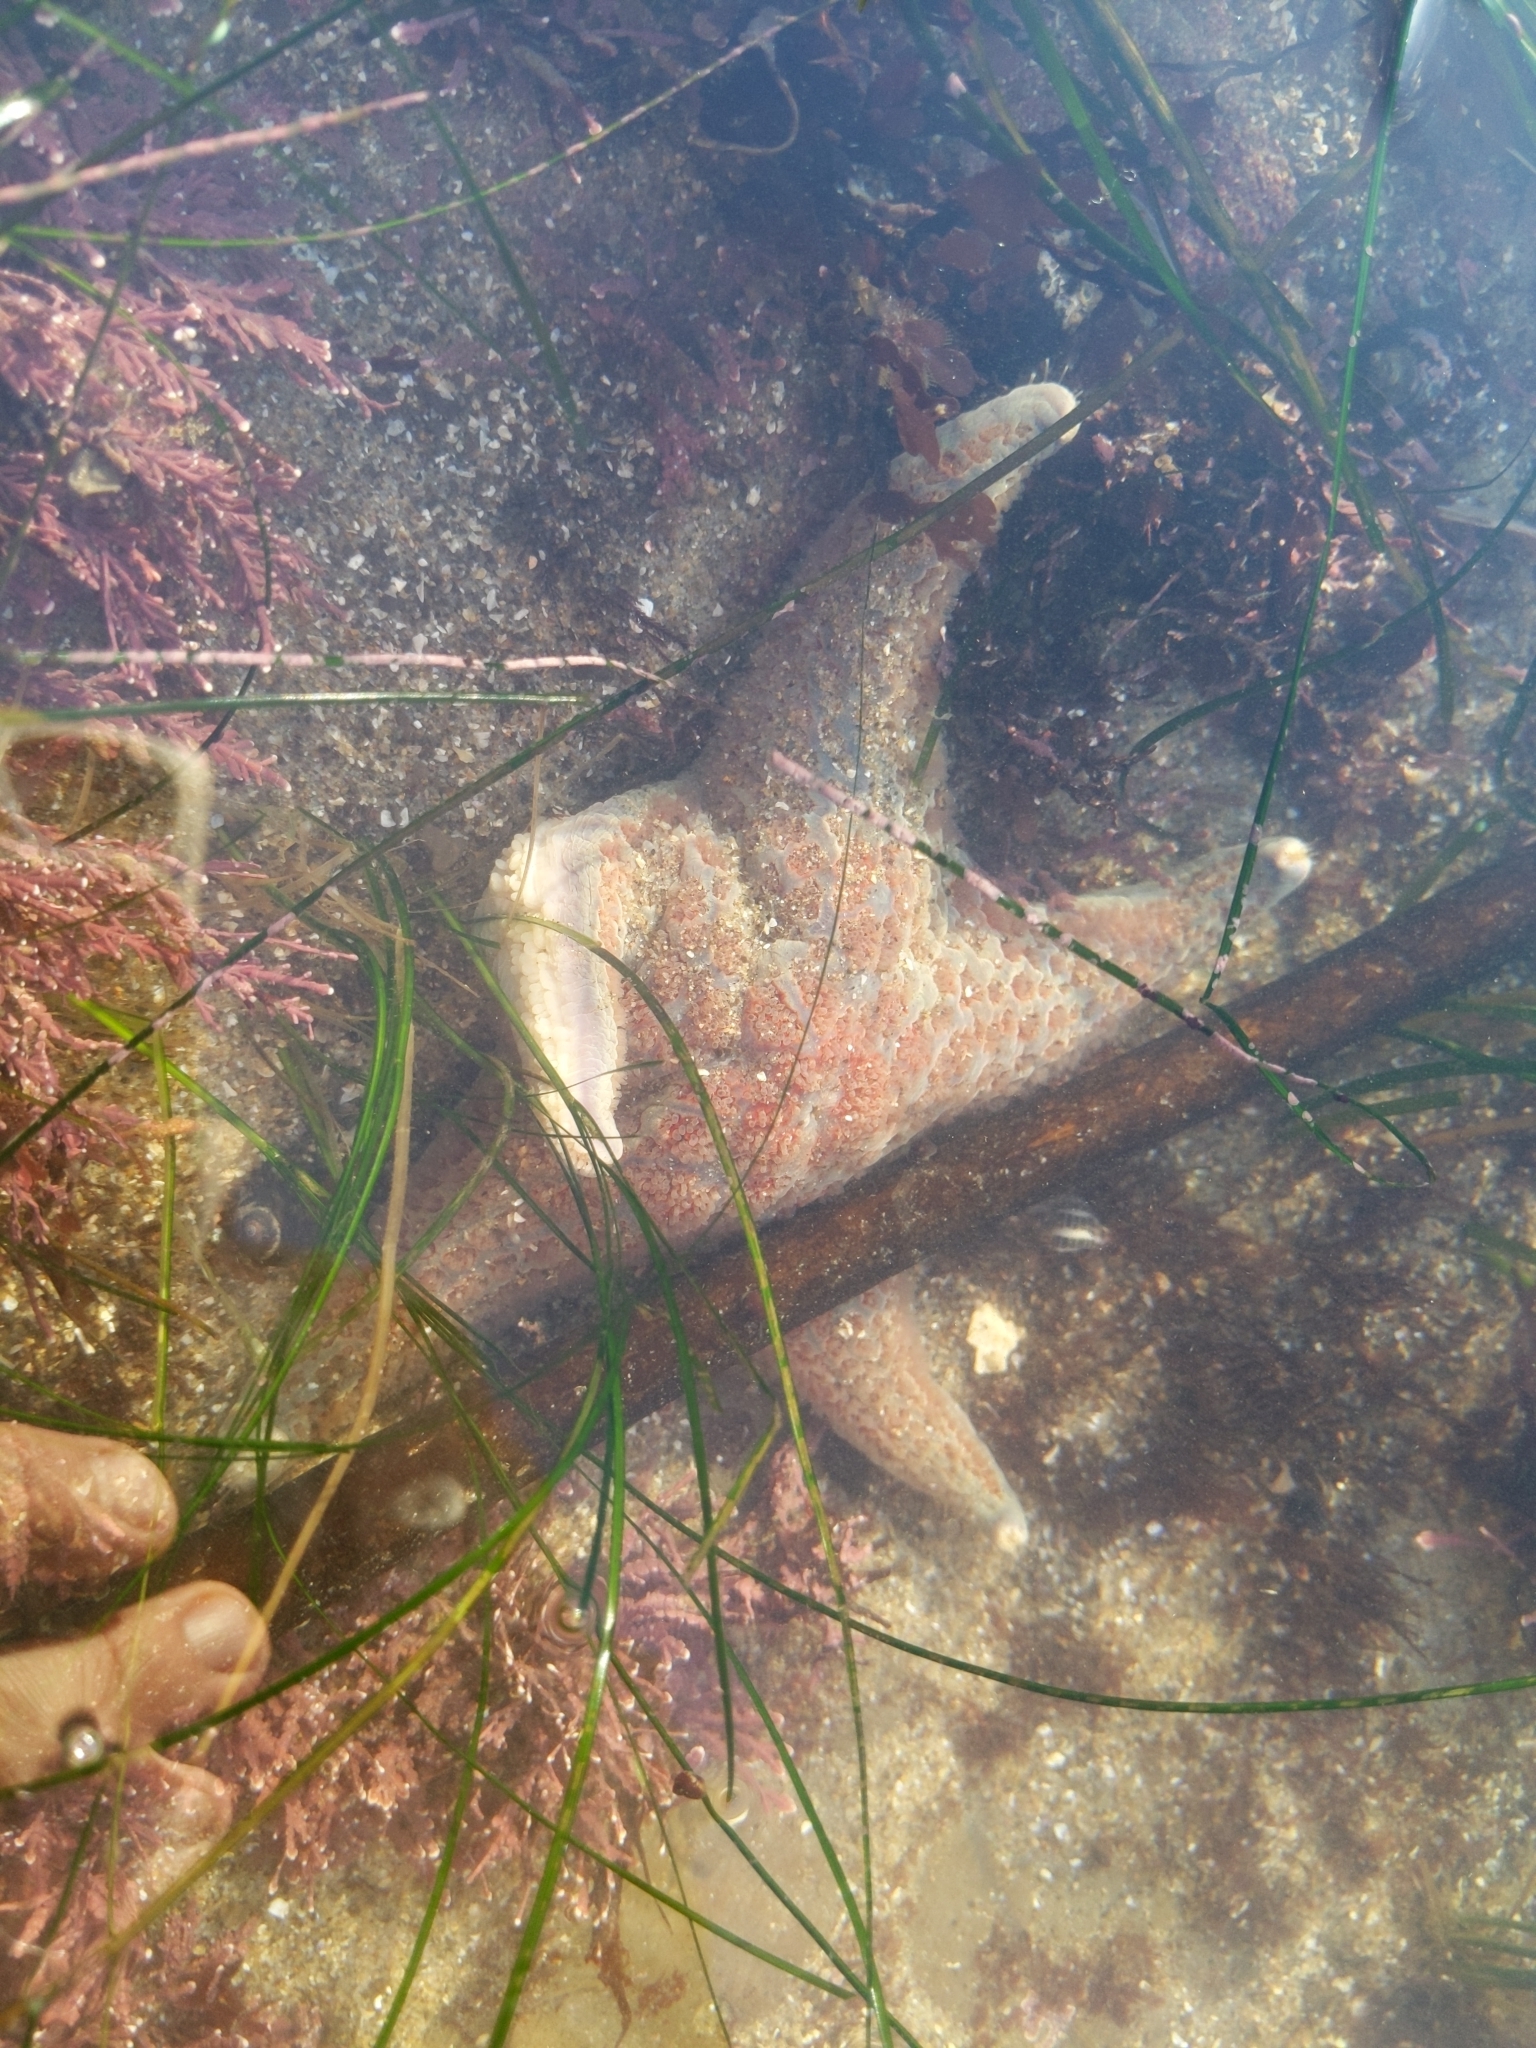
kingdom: Animalia
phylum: Echinodermata
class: Asteroidea
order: Valvatida
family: Asteropseidae
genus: Dermasterias
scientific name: Dermasterias imbricata
